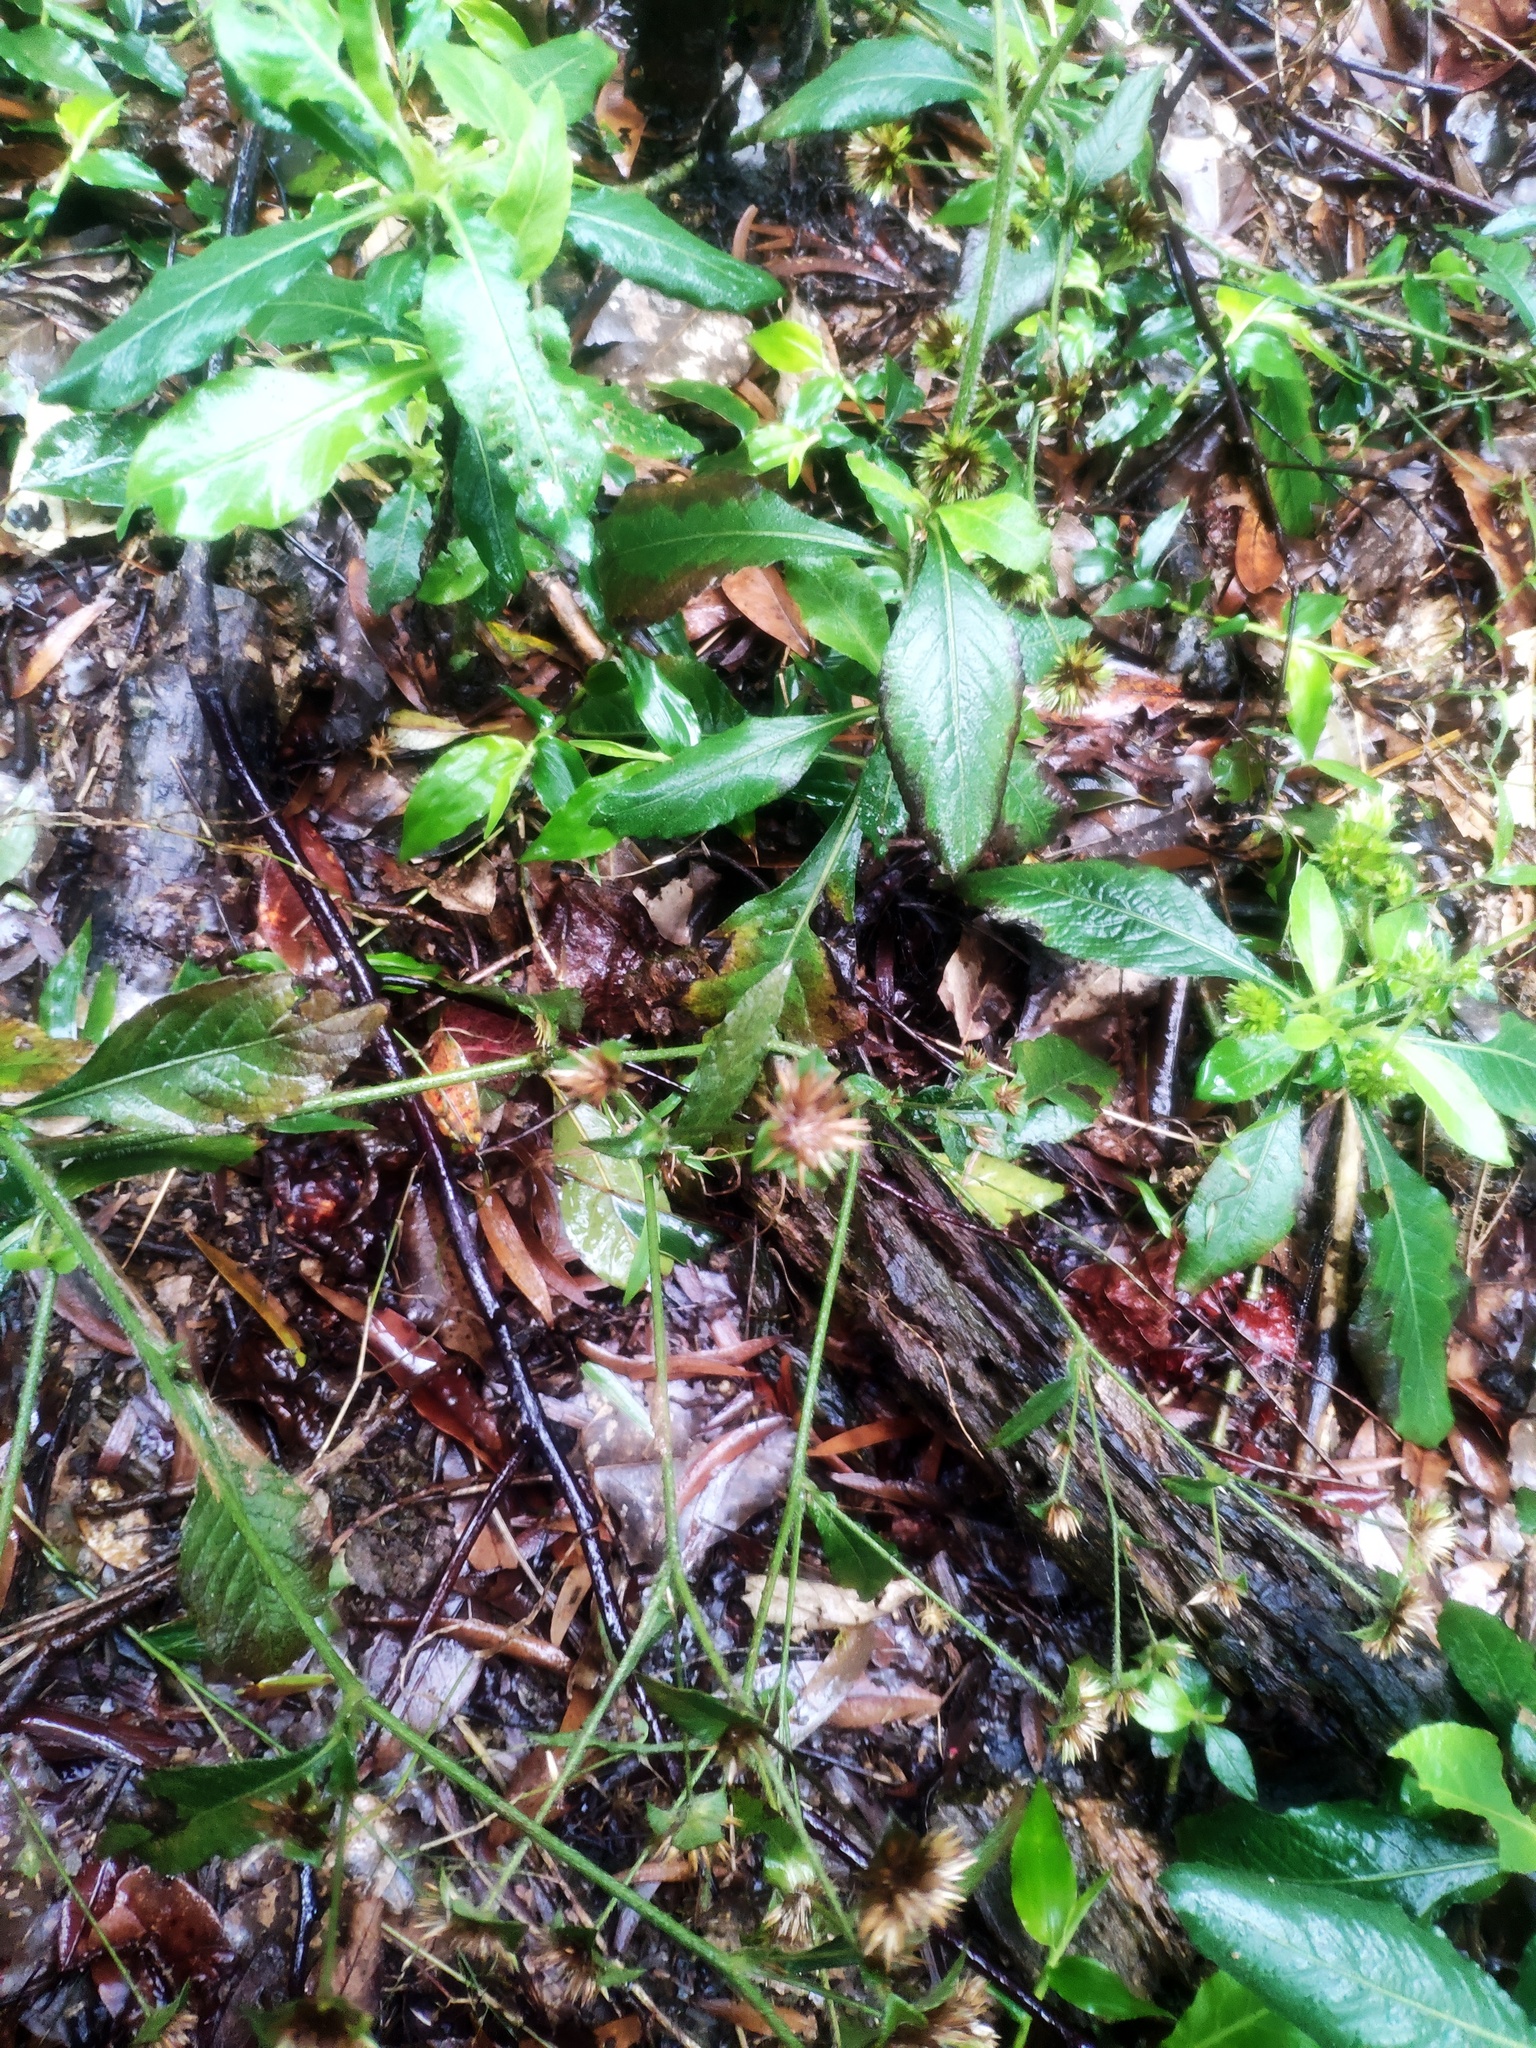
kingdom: Plantae
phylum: Tracheophyta
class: Magnoliopsida
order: Asterales
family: Asteraceae
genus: Elephantopus
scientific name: Elephantopus mollis
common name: Soft elephantsfoot
